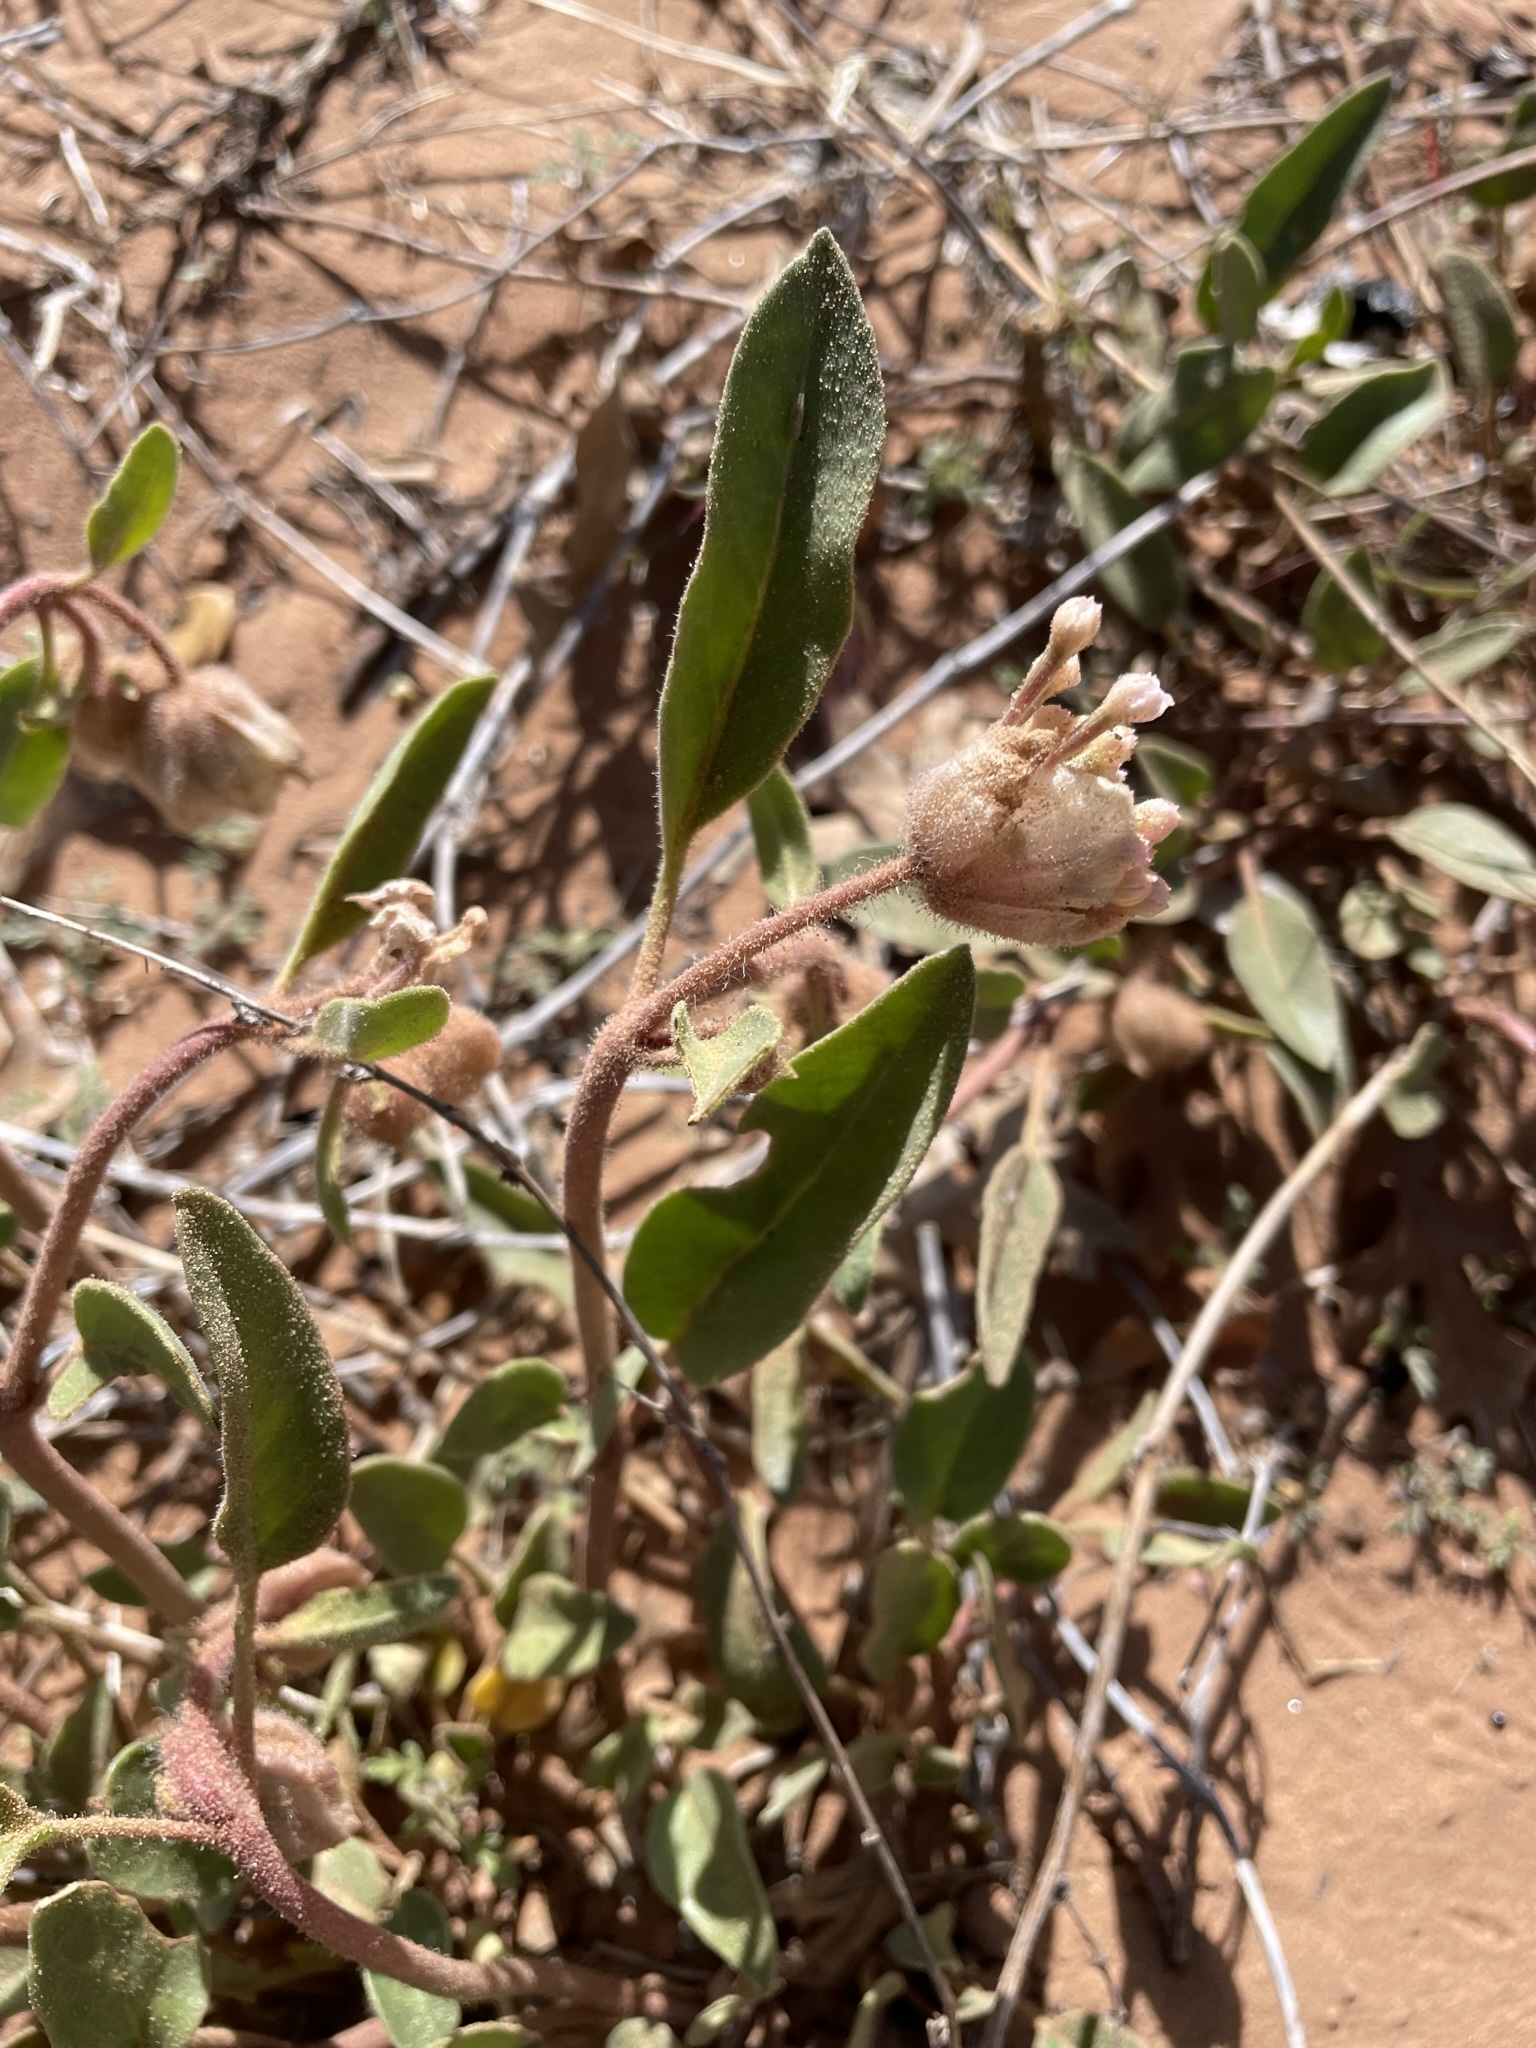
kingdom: Plantae
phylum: Tracheophyta
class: Magnoliopsida
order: Caryophyllales
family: Nyctaginaceae
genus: Abronia
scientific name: Abronia elliptica
